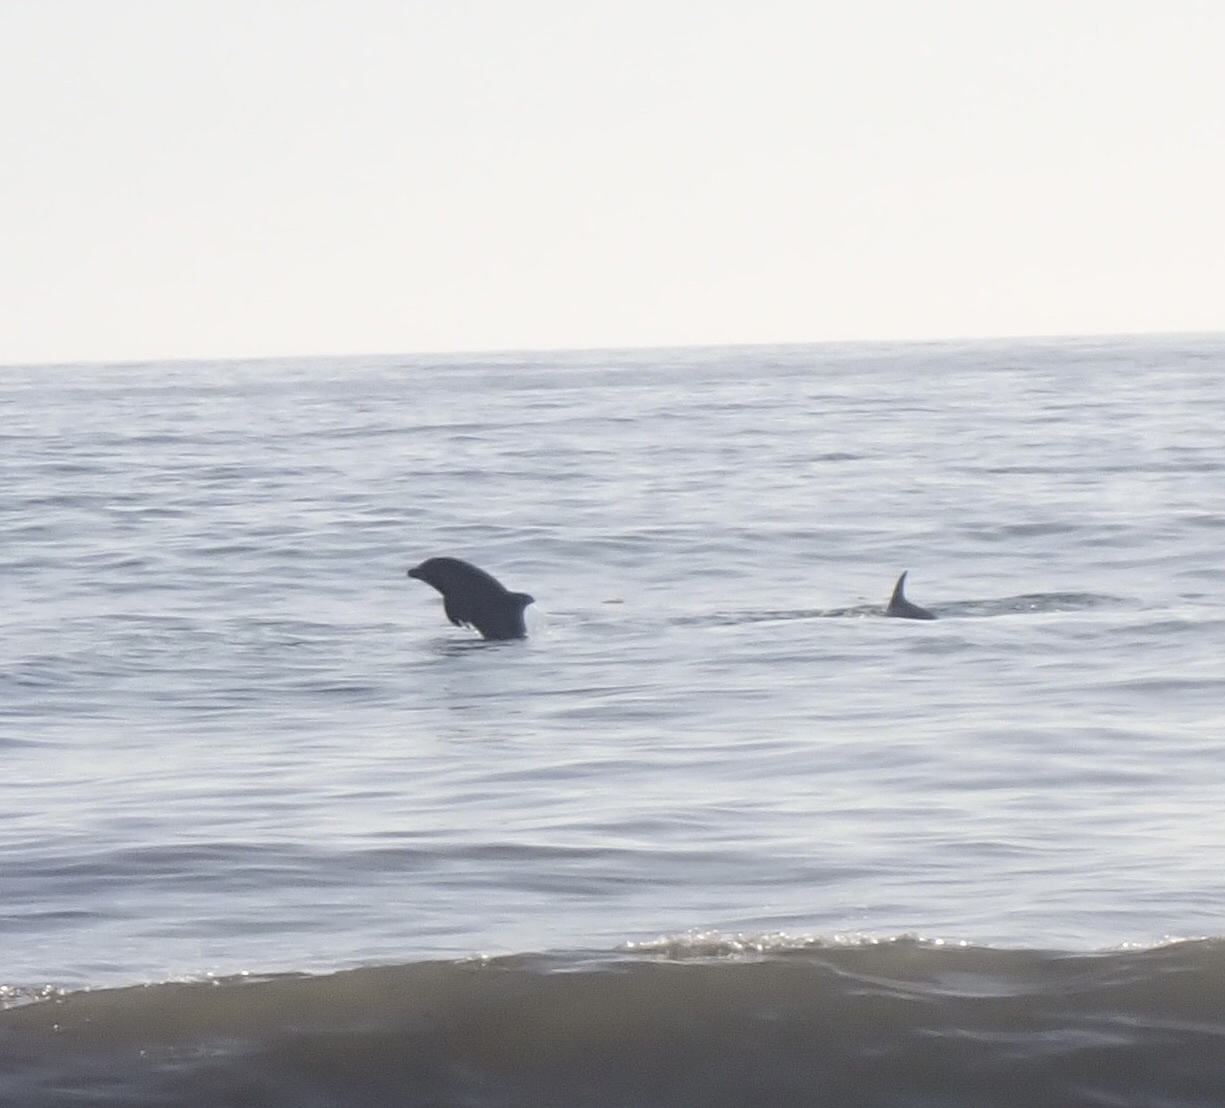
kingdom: Animalia
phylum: Chordata
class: Mammalia
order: Cetacea
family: Delphinidae
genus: Tursiops
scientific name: Tursiops truncatus
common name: Bottlenose dolphin
